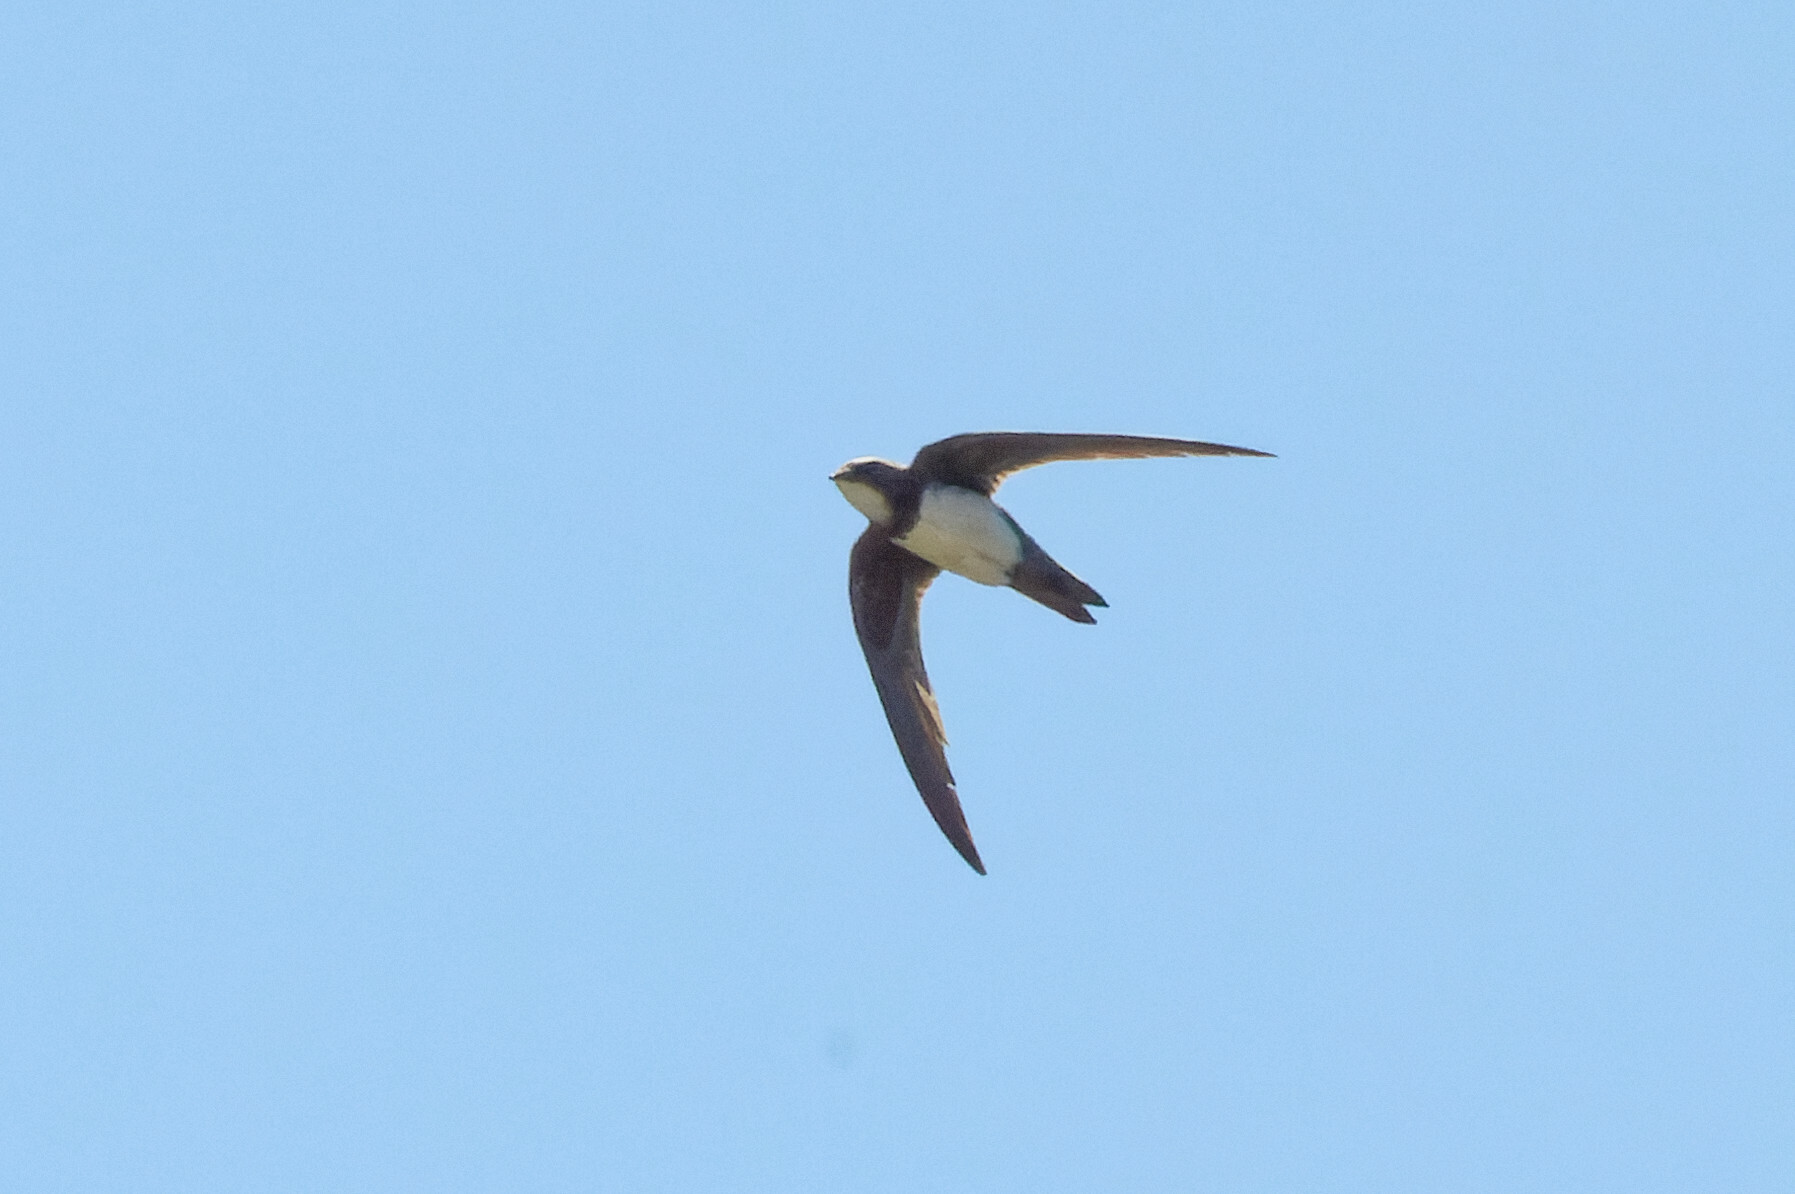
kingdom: Animalia
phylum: Chordata
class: Aves
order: Apodiformes
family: Apodidae
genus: Tachymarptis
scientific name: Tachymarptis melba
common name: Alpine swift
